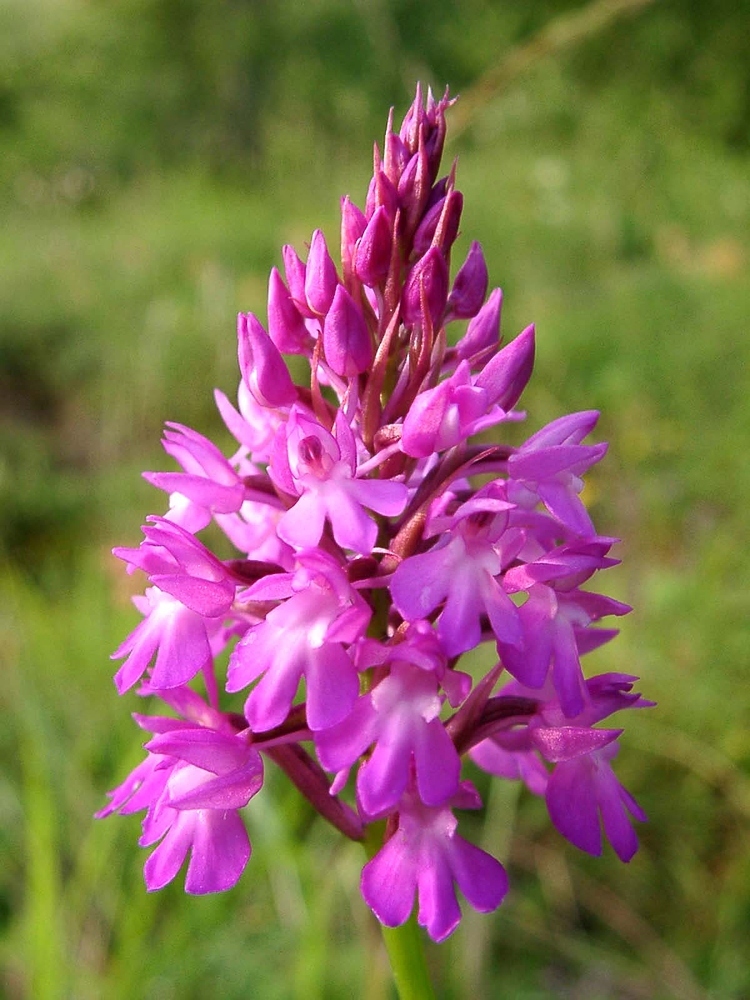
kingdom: Plantae
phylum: Tracheophyta
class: Liliopsida
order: Asparagales
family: Orchidaceae
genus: Anacamptis
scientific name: Anacamptis pyramidalis
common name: Pyramidal orchid
